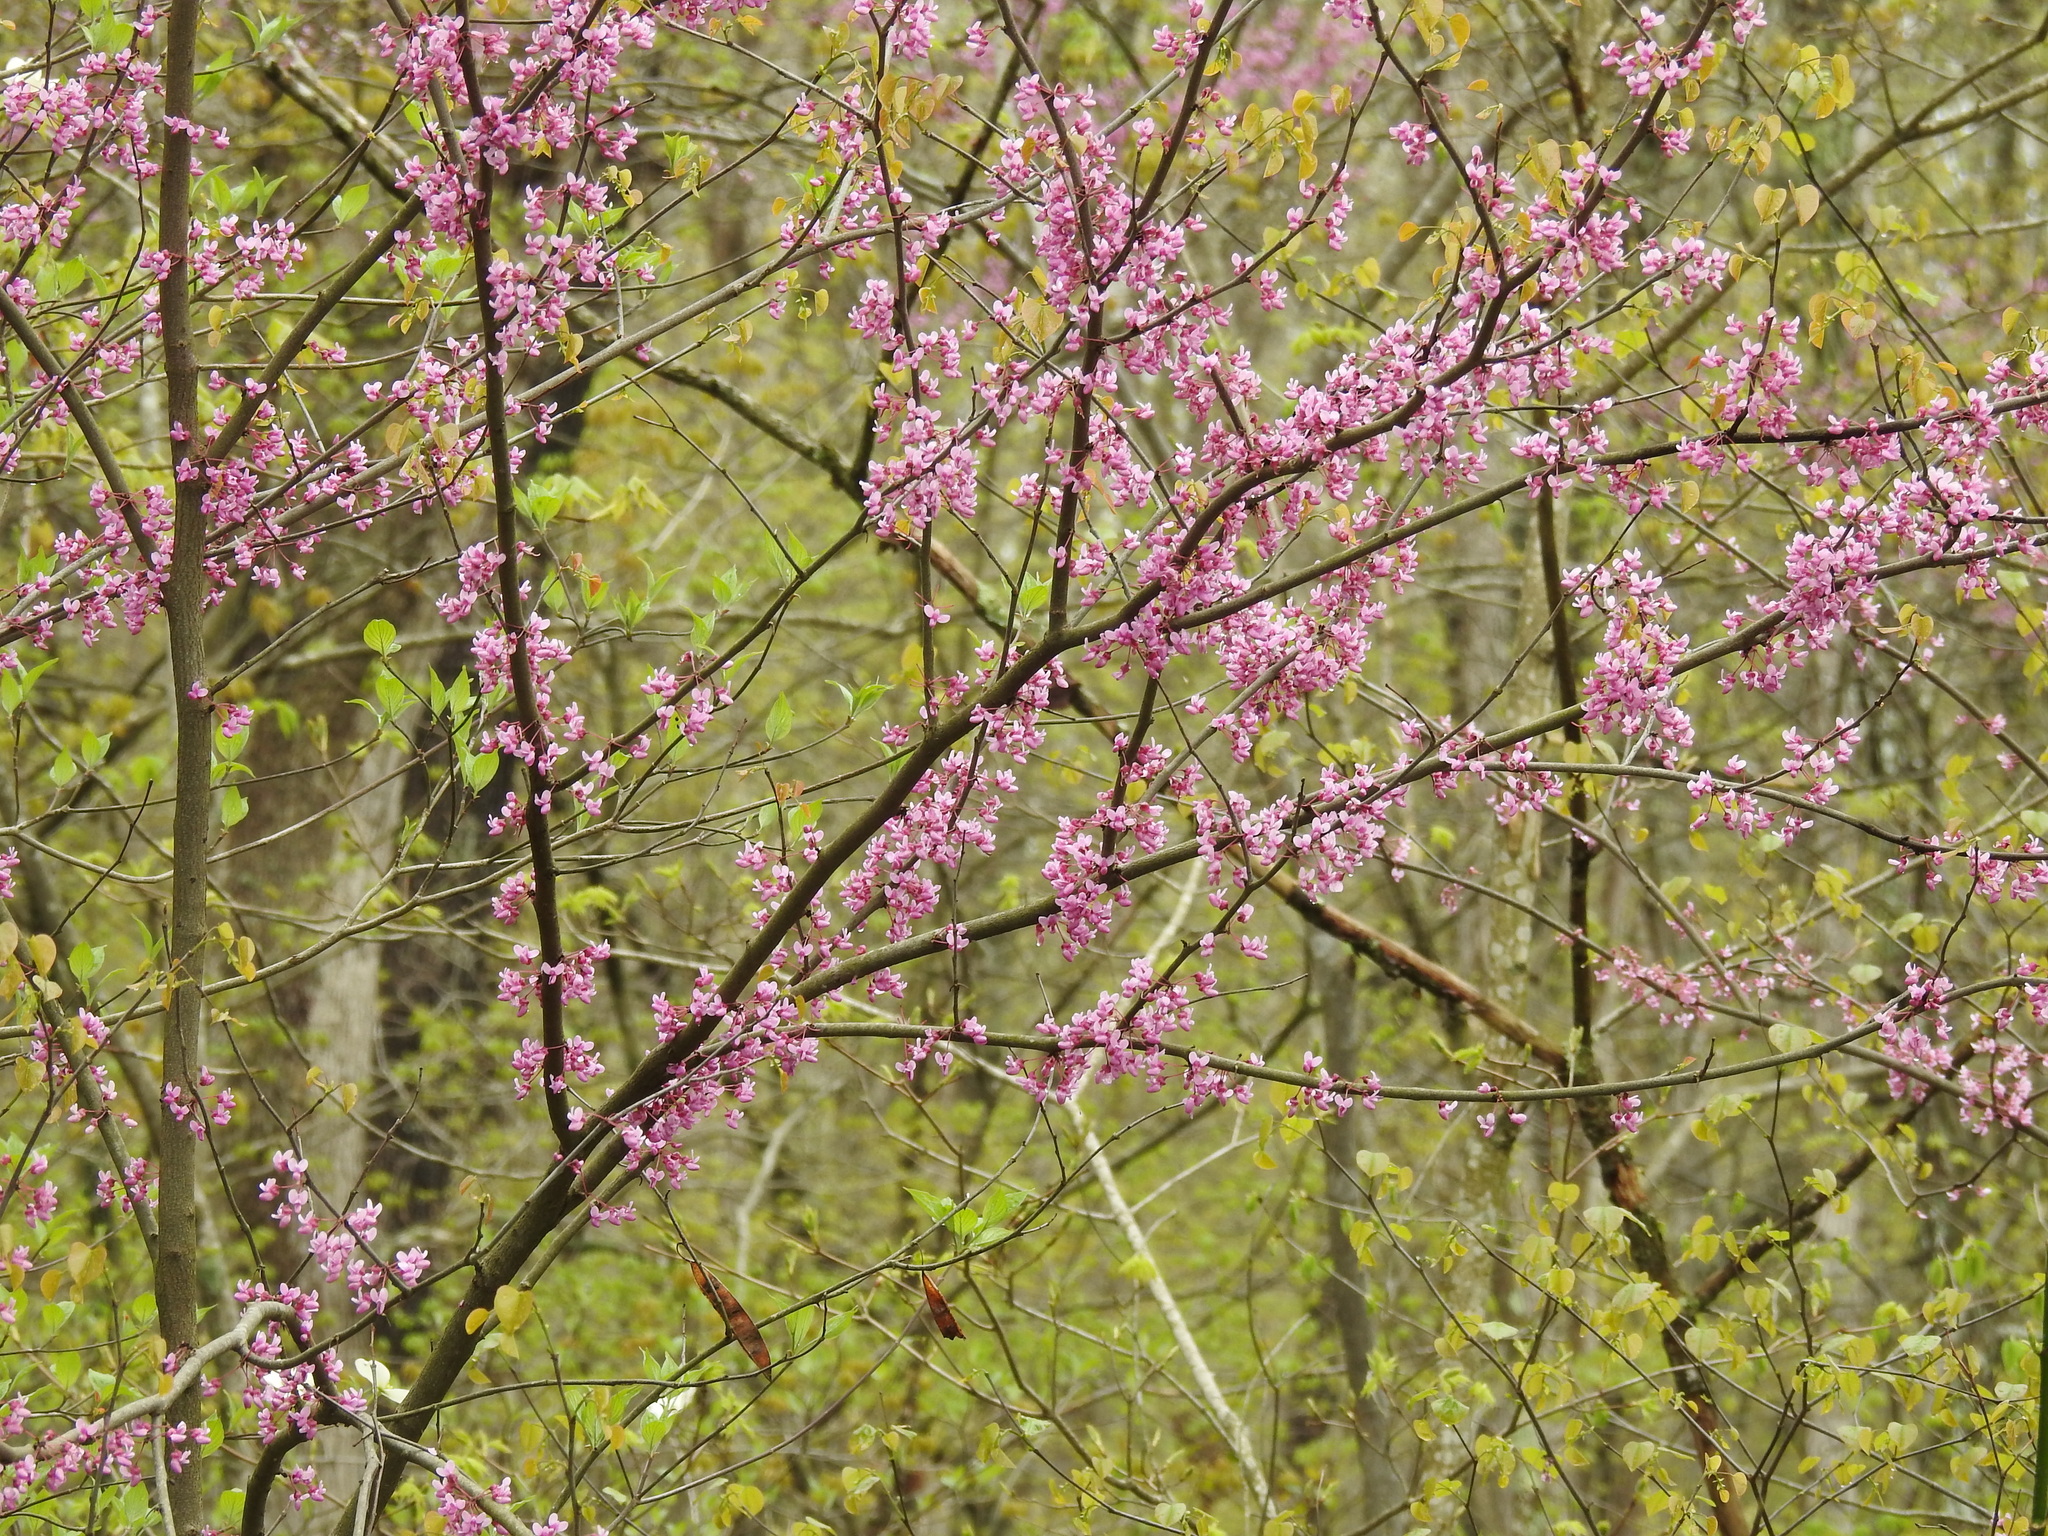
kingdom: Plantae
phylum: Tracheophyta
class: Magnoliopsida
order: Fabales
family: Fabaceae
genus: Cercis
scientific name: Cercis canadensis
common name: Eastern redbud
